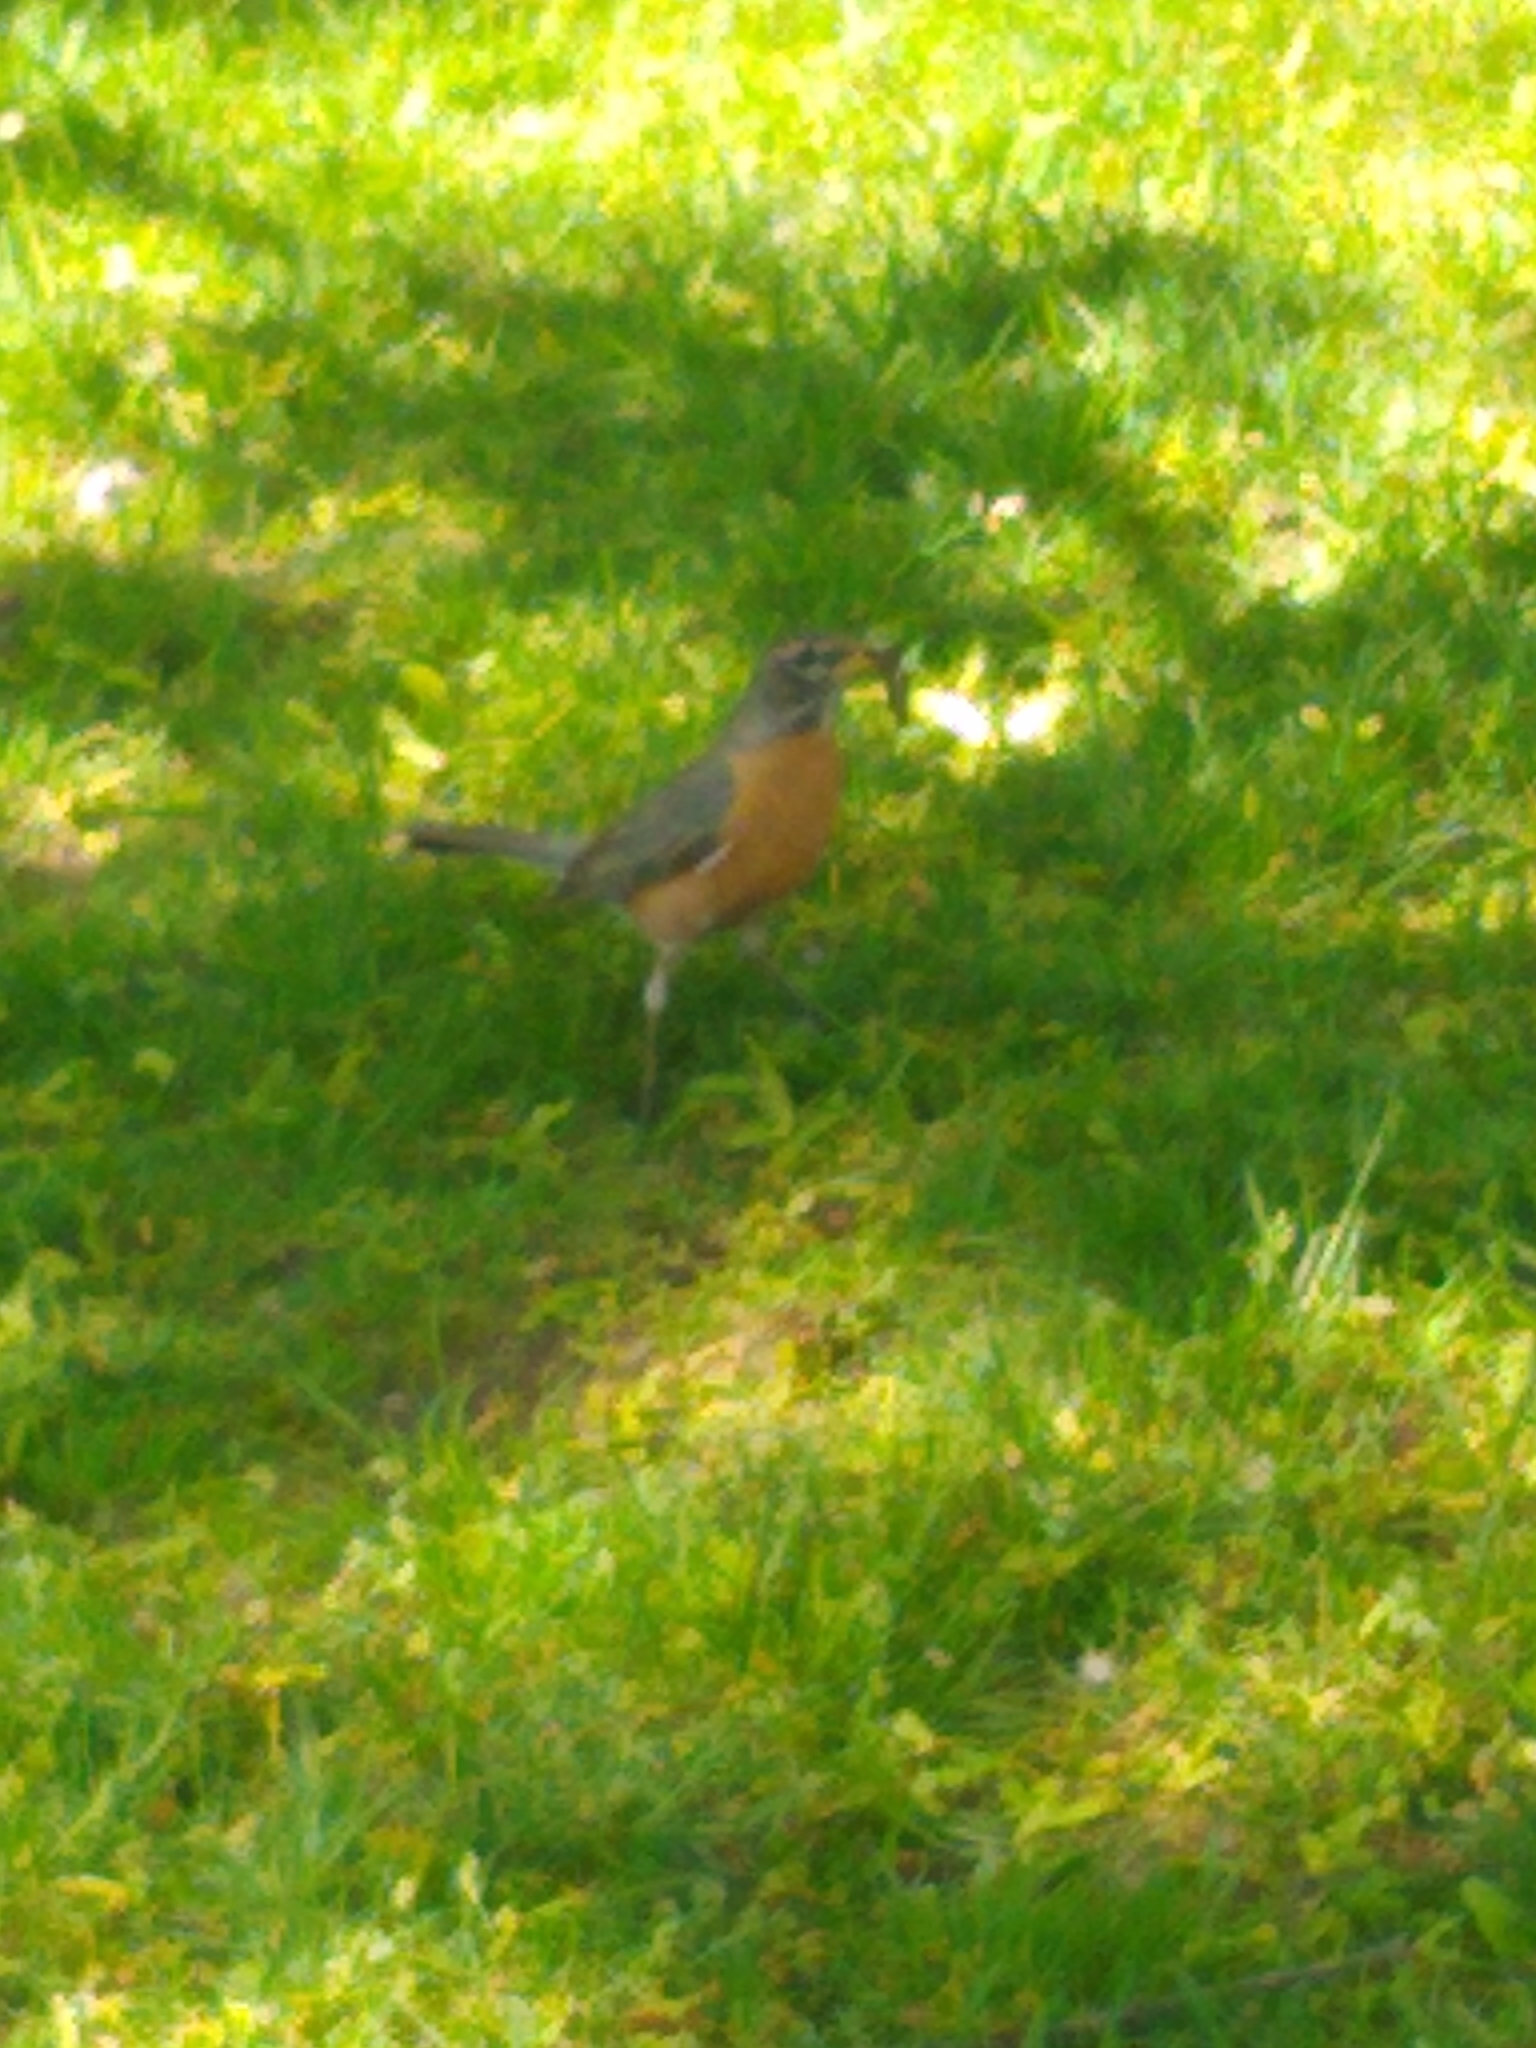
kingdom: Animalia
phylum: Chordata
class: Aves
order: Passeriformes
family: Turdidae
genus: Turdus
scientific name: Turdus migratorius
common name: American robin
